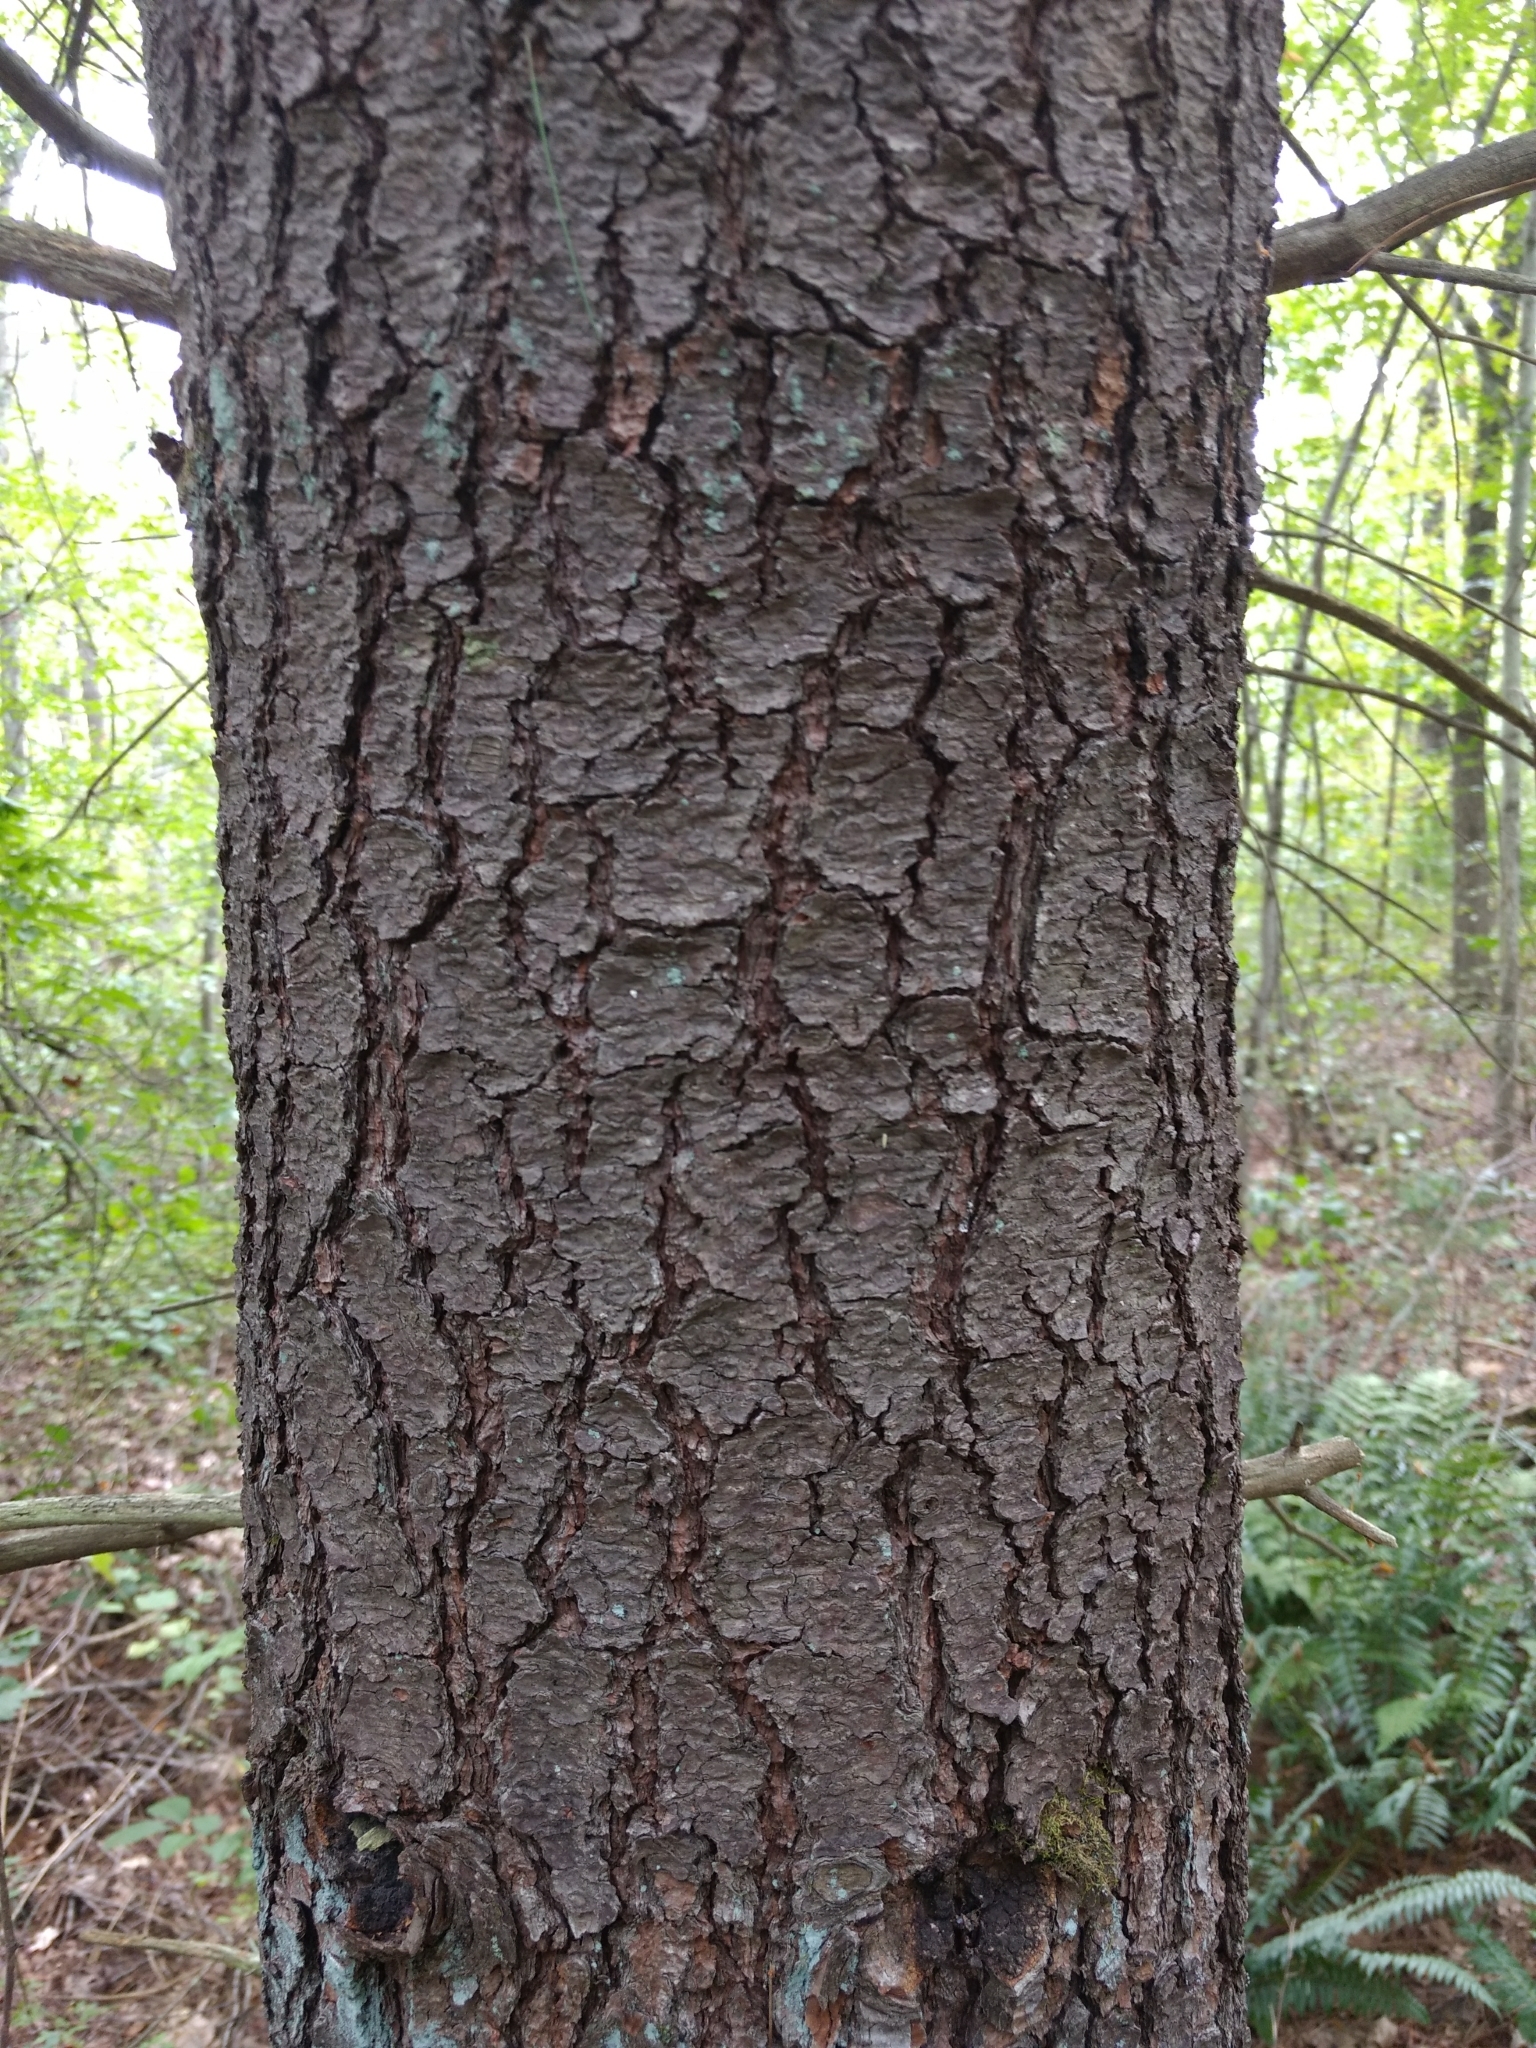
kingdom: Plantae
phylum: Tracheophyta
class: Pinopsida
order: Pinales
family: Pinaceae
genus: Pinus
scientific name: Pinus strobus
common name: Weymouth pine
